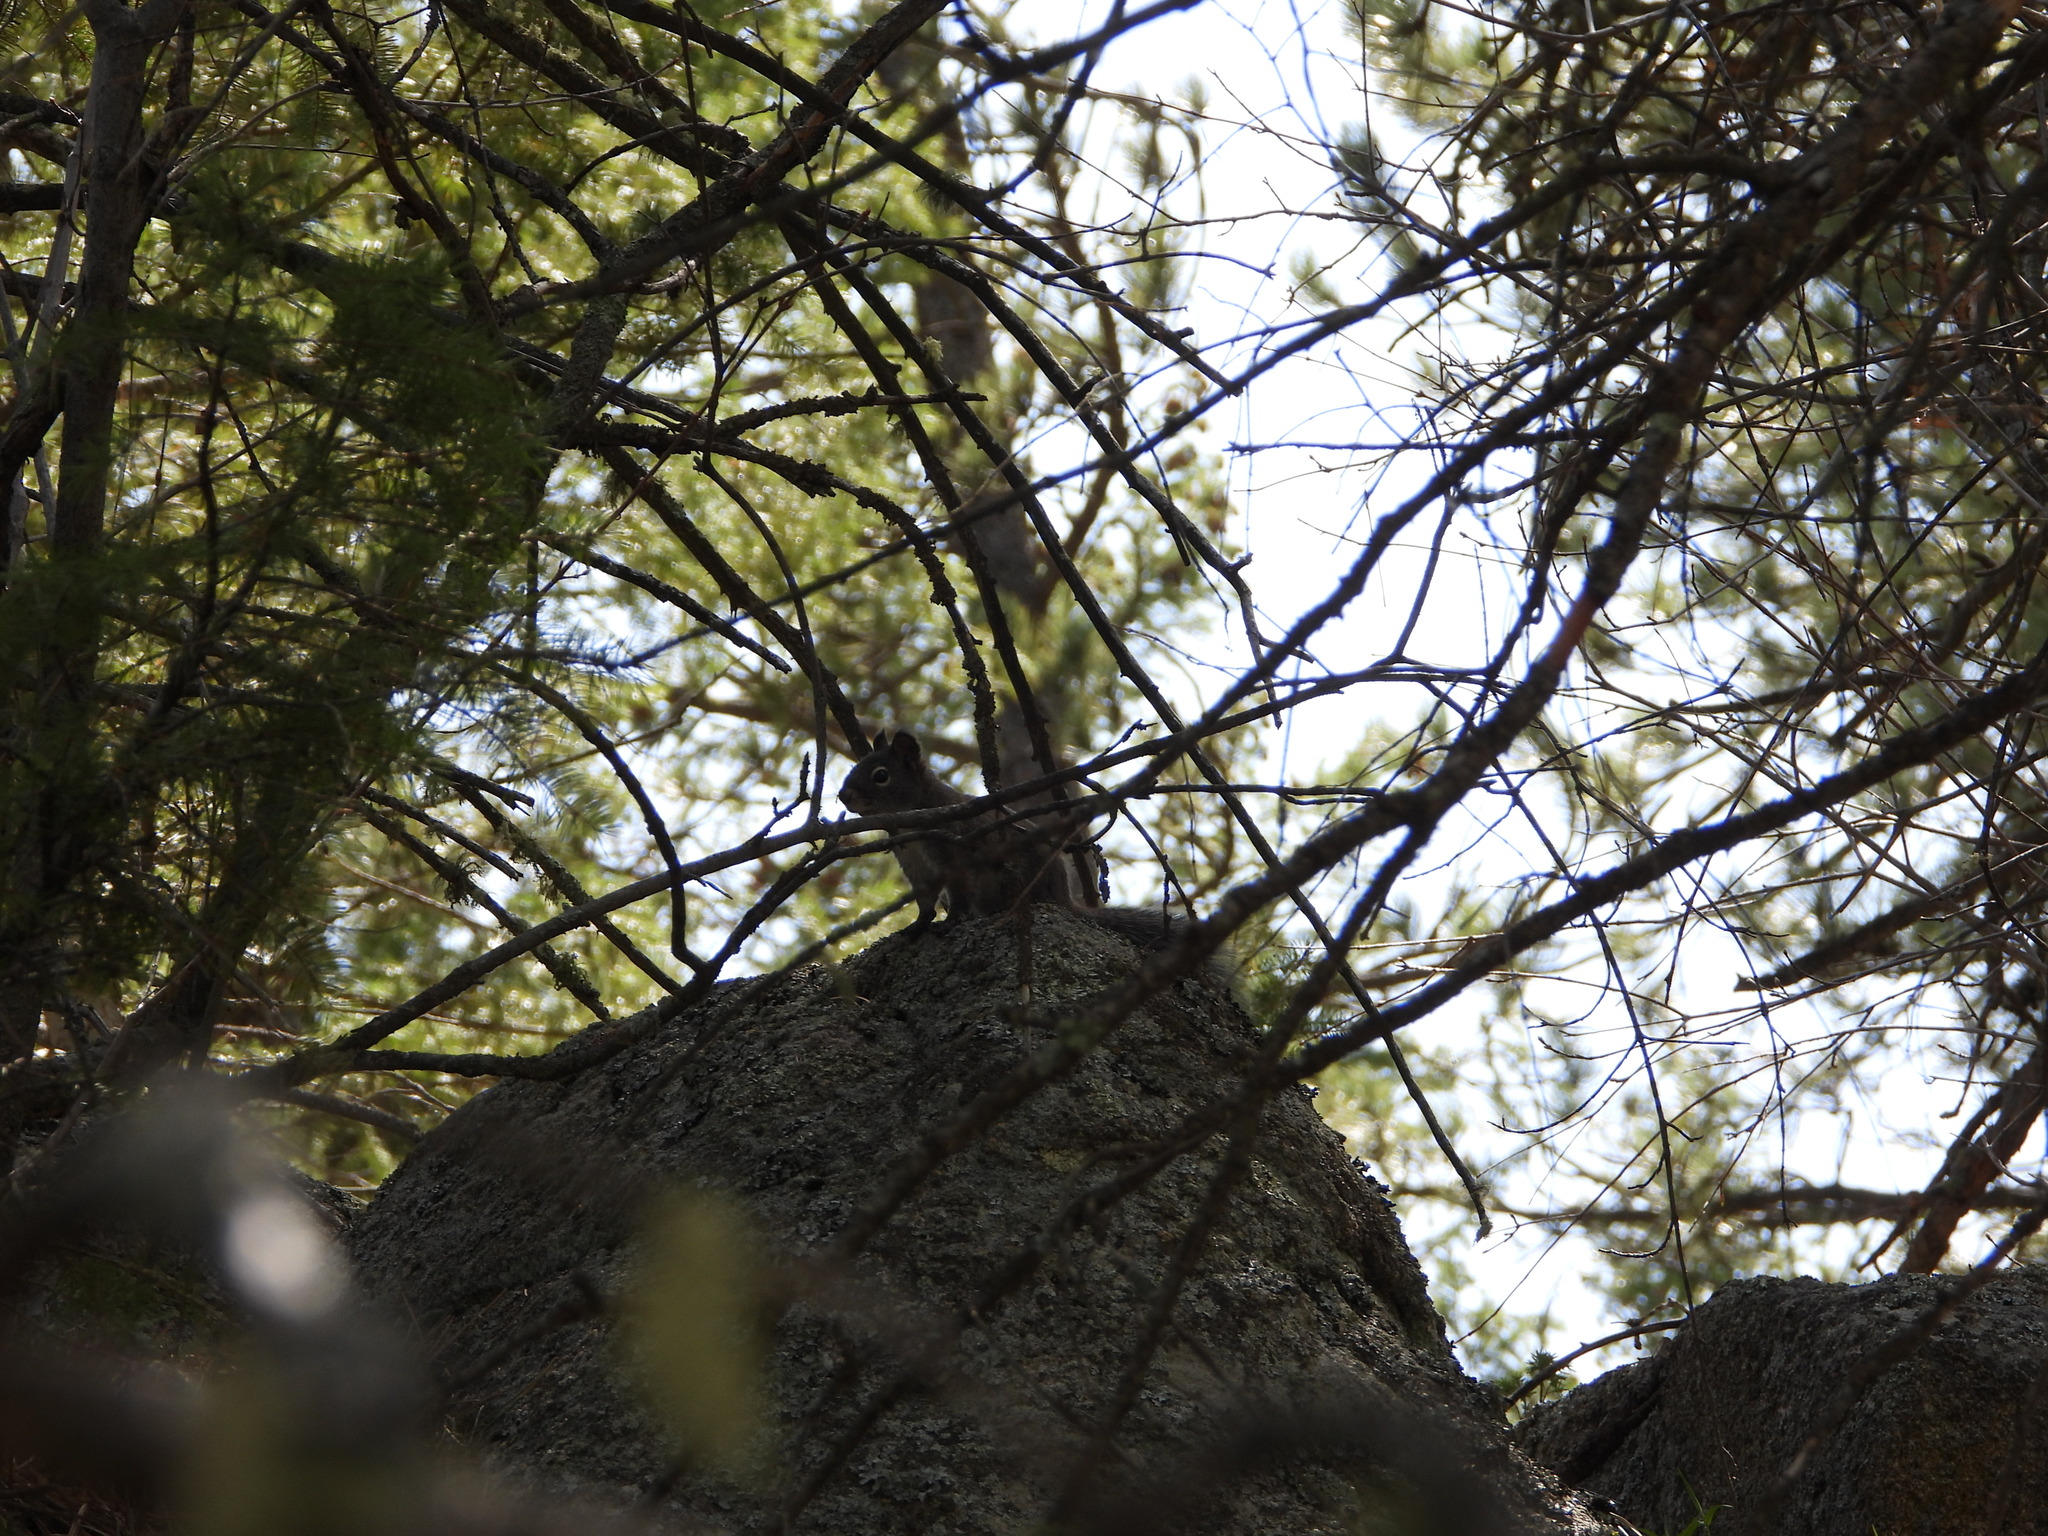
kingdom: Animalia
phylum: Chordata
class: Mammalia
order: Rodentia
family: Sciuridae
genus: Tamiasciurus
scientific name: Tamiasciurus hudsonicus
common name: Red squirrel
